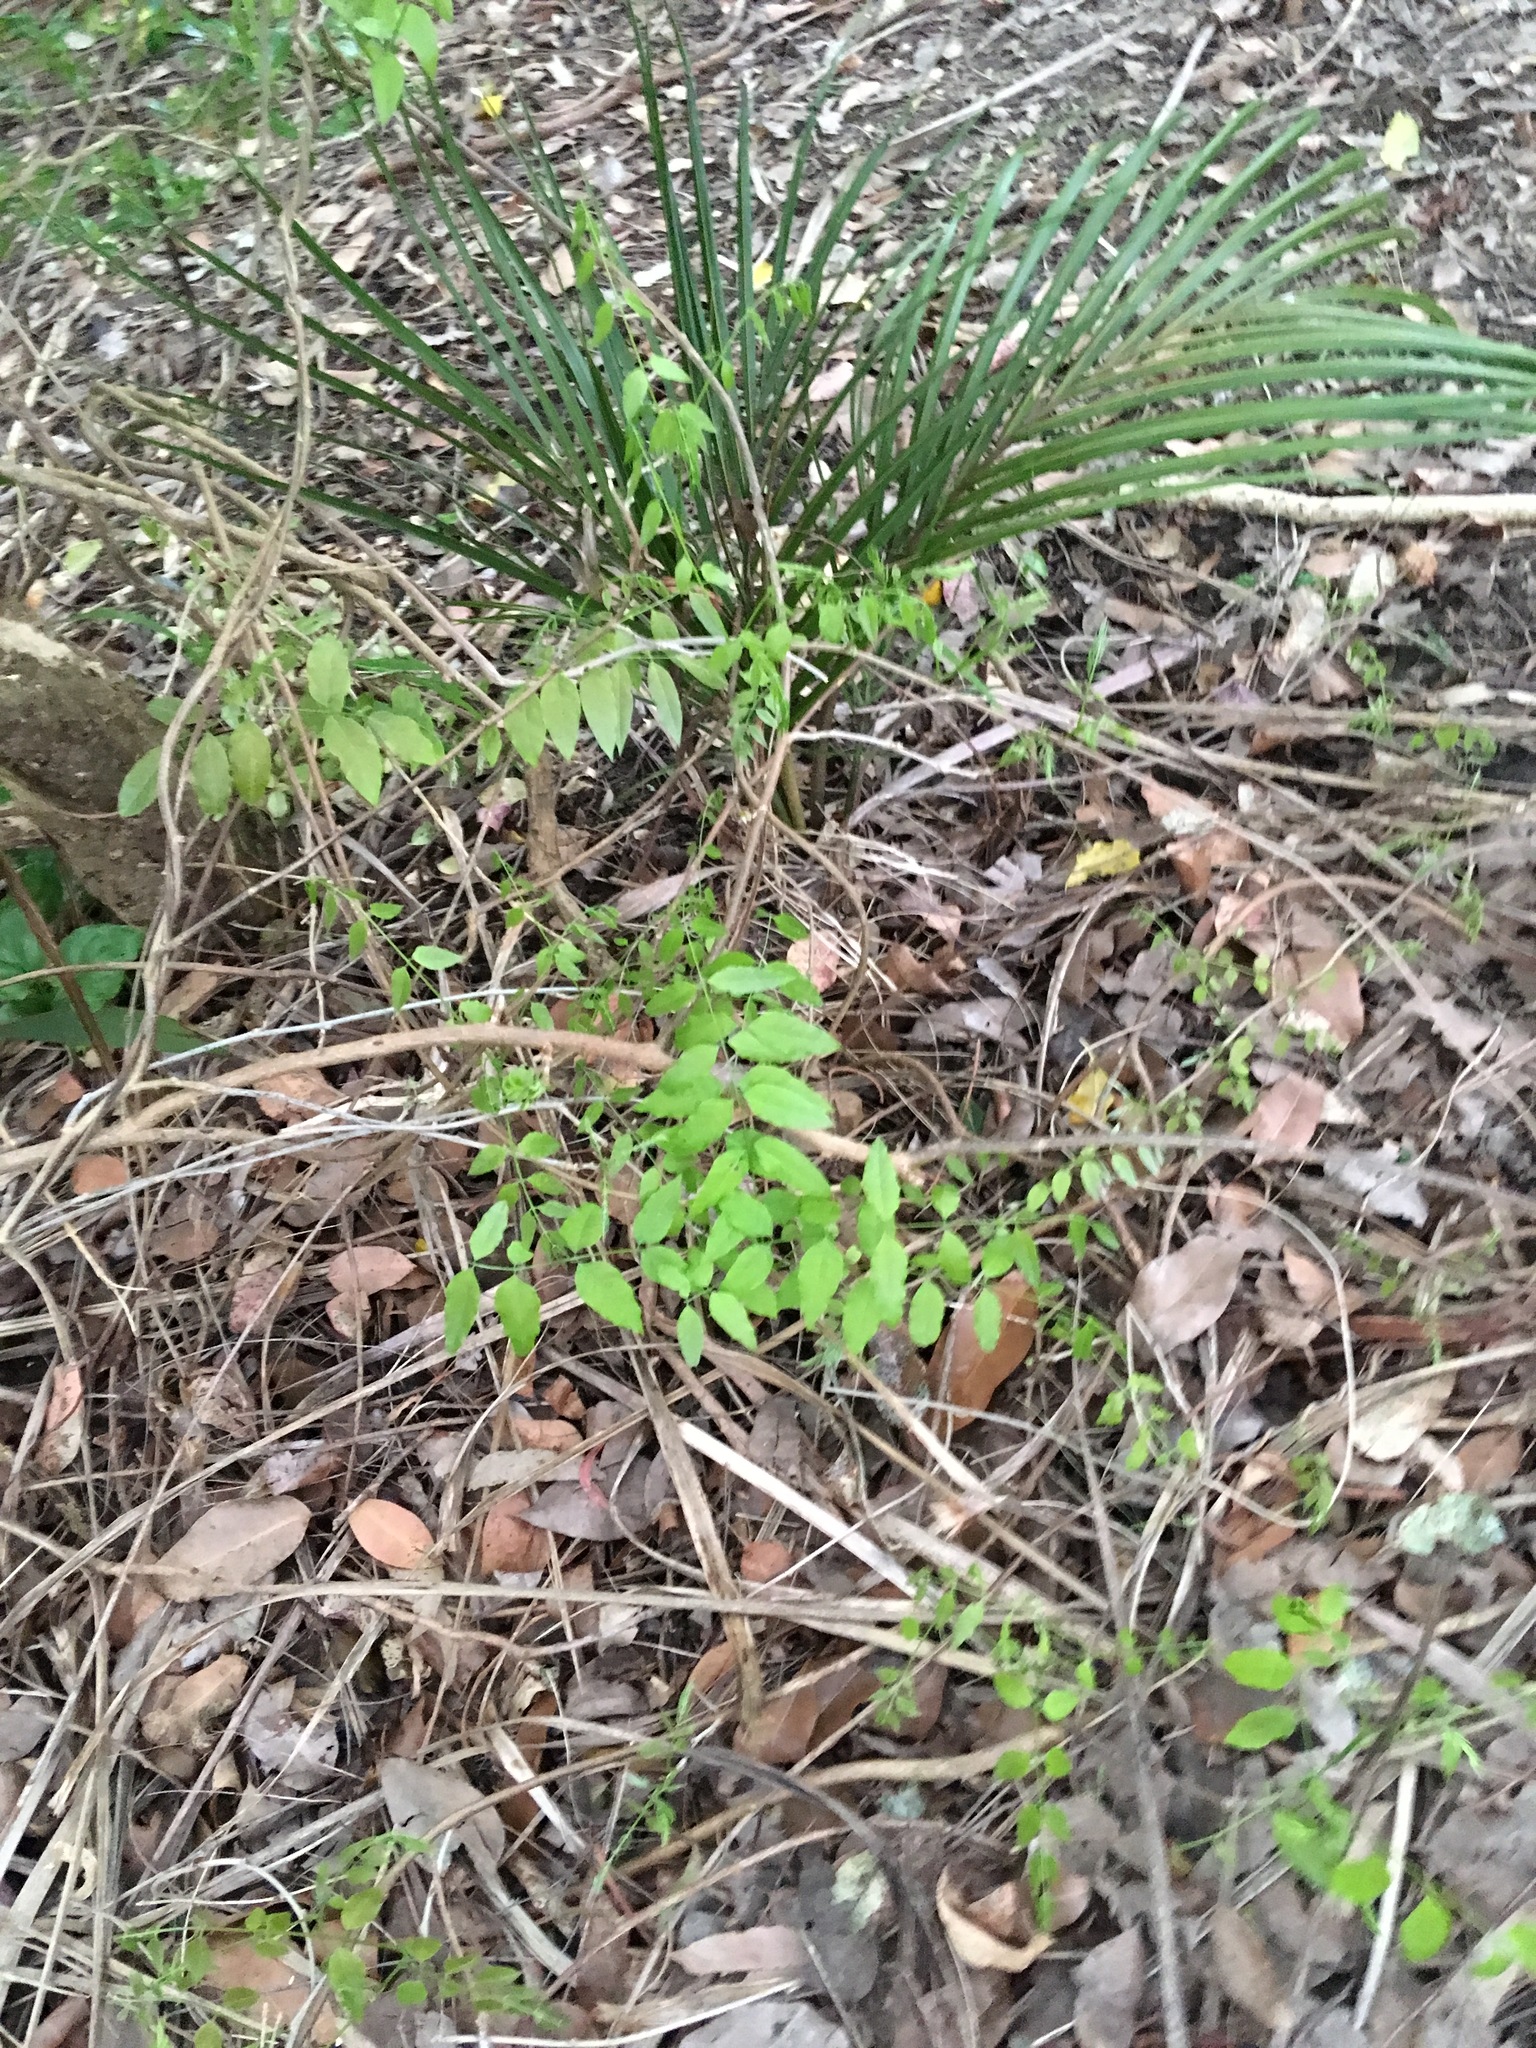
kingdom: Plantae
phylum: Tracheophyta
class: Liliopsida
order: Arecales
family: Arecaceae
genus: Rhopalostylis
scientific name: Rhopalostylis sapida
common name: Feather-duster palm
